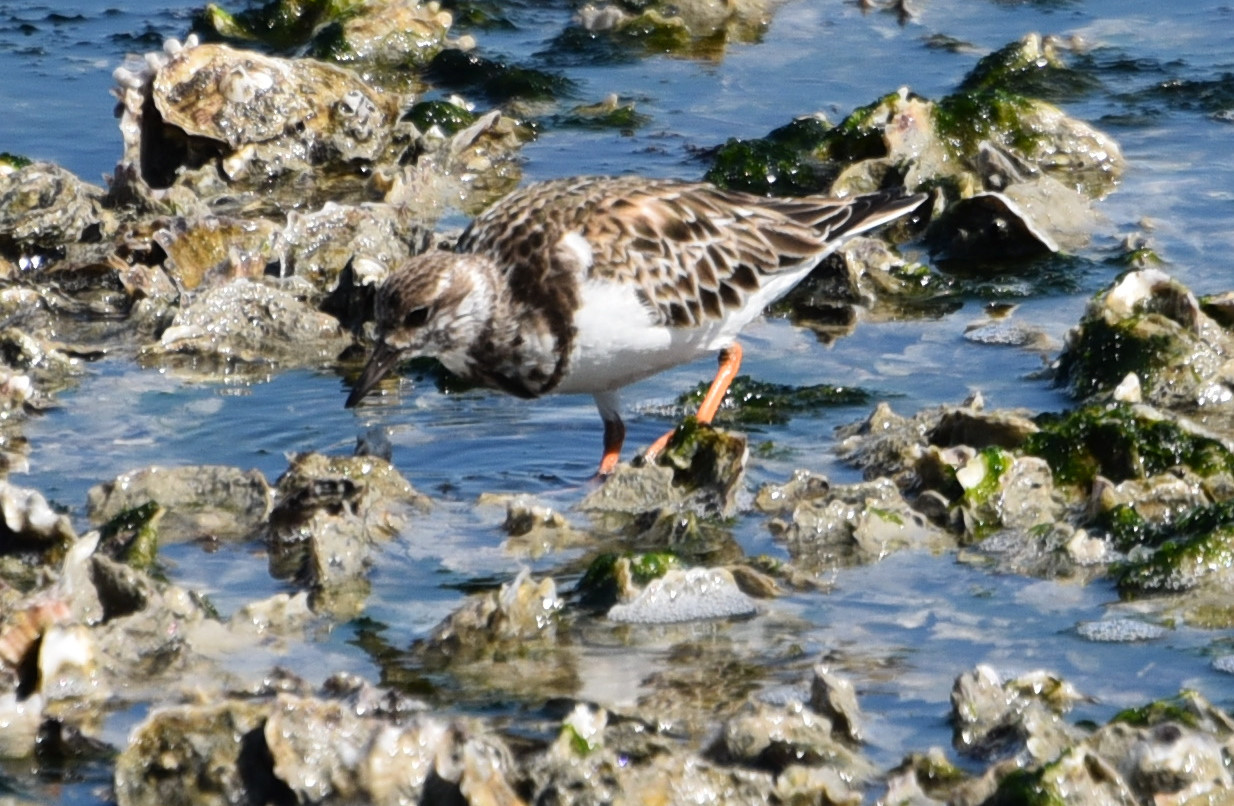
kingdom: Animalia
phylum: Chordata
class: Aves
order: Charadriiformes
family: Scolopacidae
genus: Arenaria
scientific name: Arenaria interpres
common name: Ruddy turnstone
